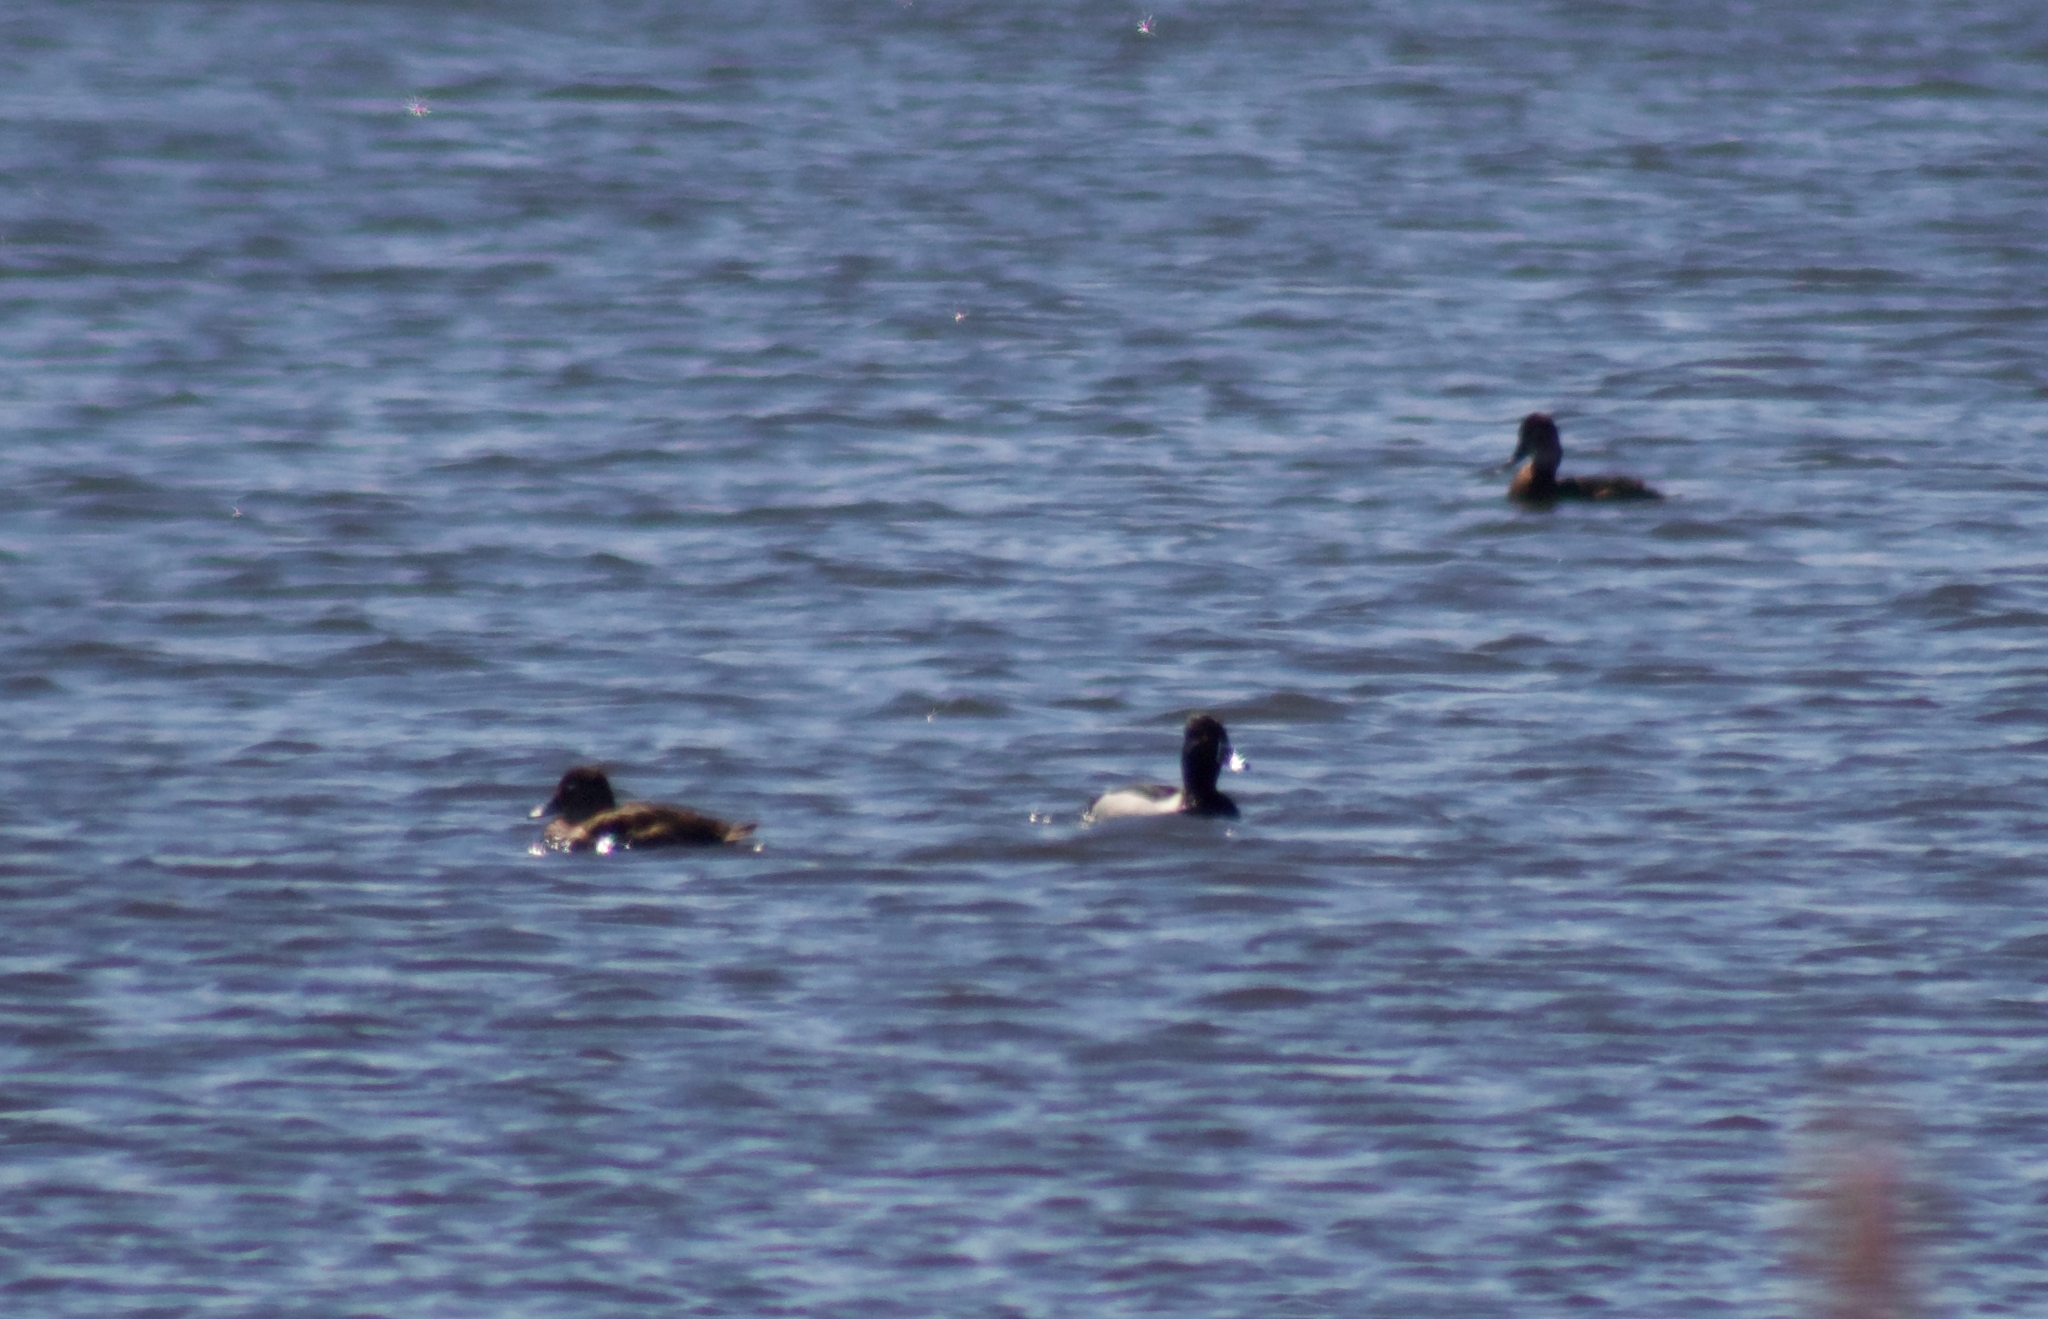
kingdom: Animalia
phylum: Chordata
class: Aves
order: Anseriformes
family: Anatidae
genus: Aythya
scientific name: Aythya collaris
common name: Ring-necked duck
